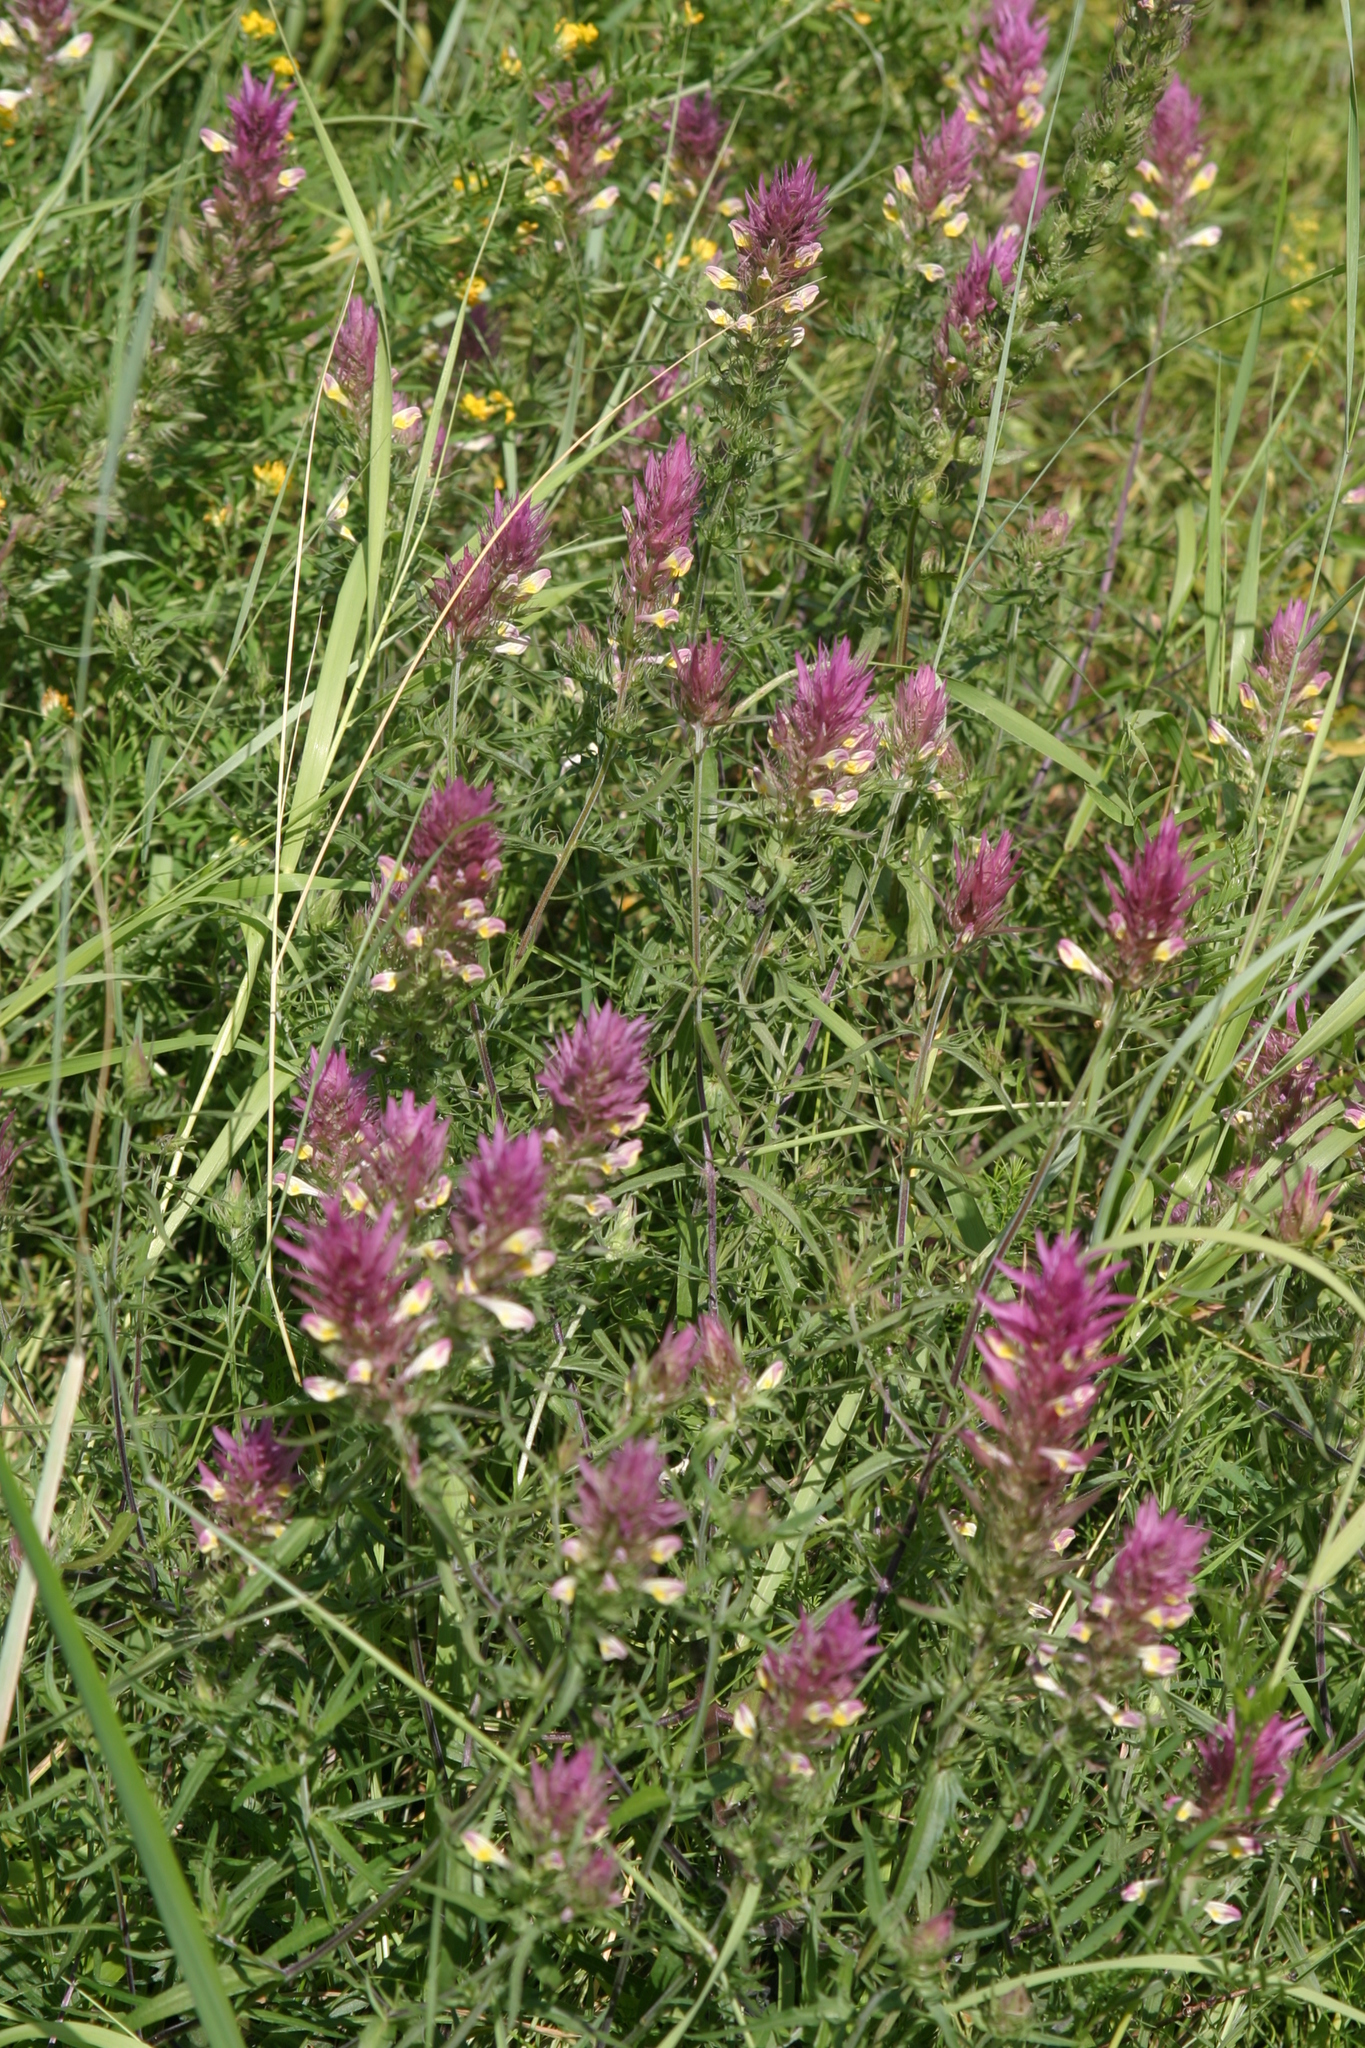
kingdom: Plantae
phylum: Tracheophyta
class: Magnoliopsida
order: Lamiales
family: Orobanchaceae
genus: Melampyrum
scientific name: Melampyrum arvense
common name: Field cow-wheat
